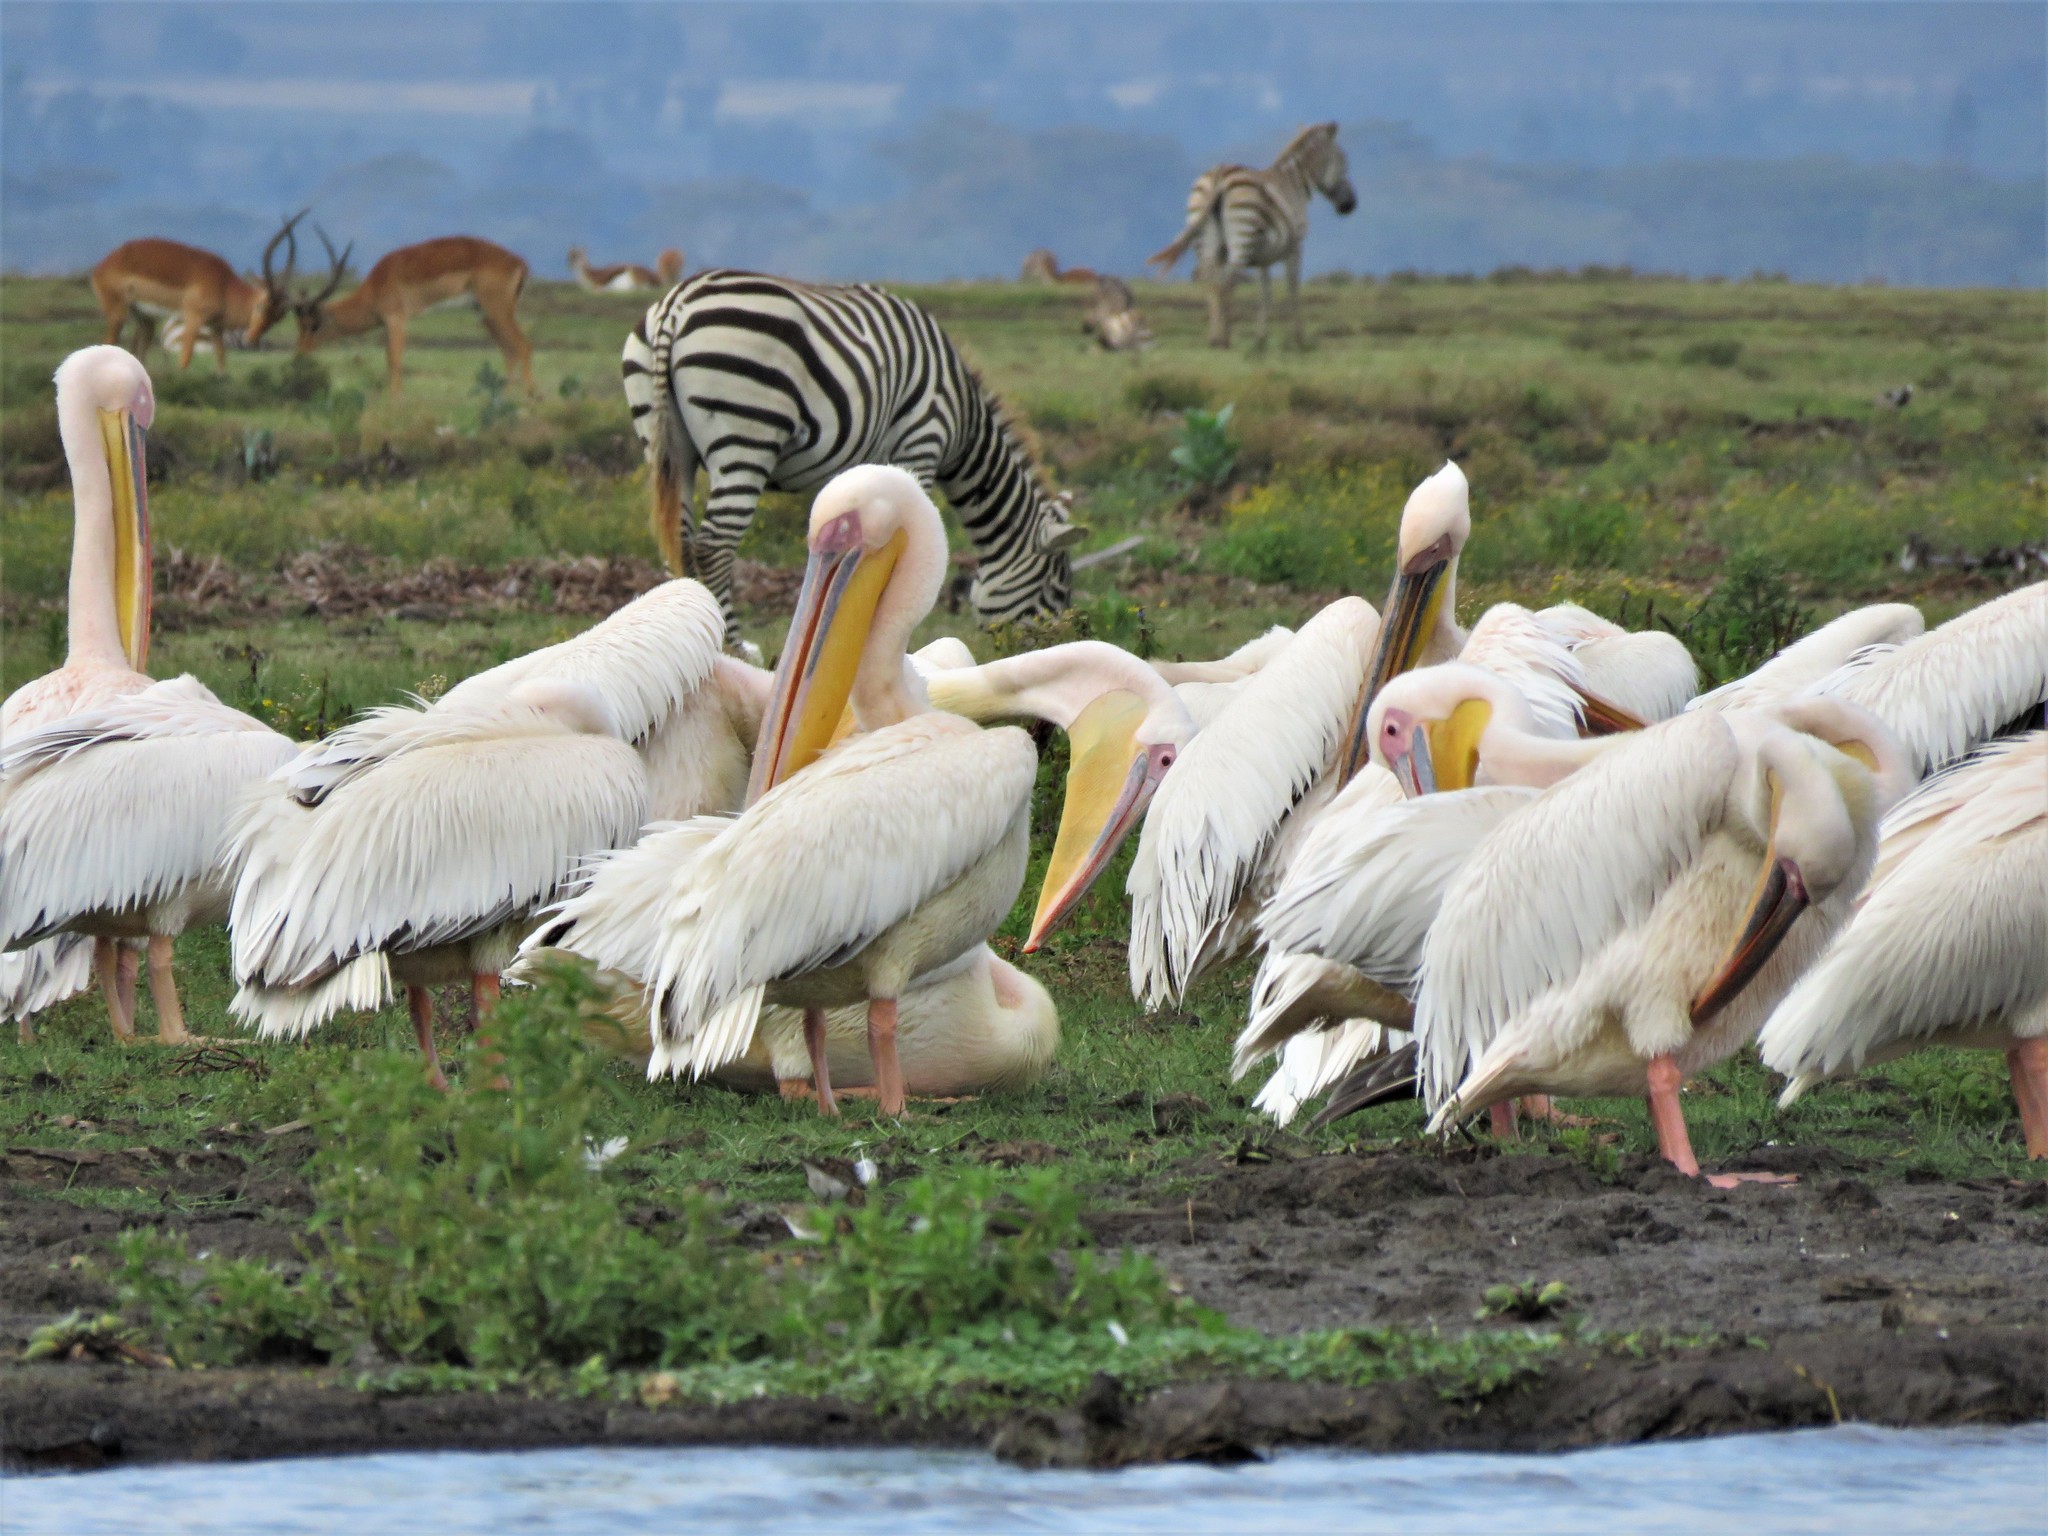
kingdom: Animalia
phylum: Chordata
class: Aves
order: Pelecaniformes
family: Pelecanidae
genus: Pelecanus
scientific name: Pelecanus onocrotalus
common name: Great white pelican
